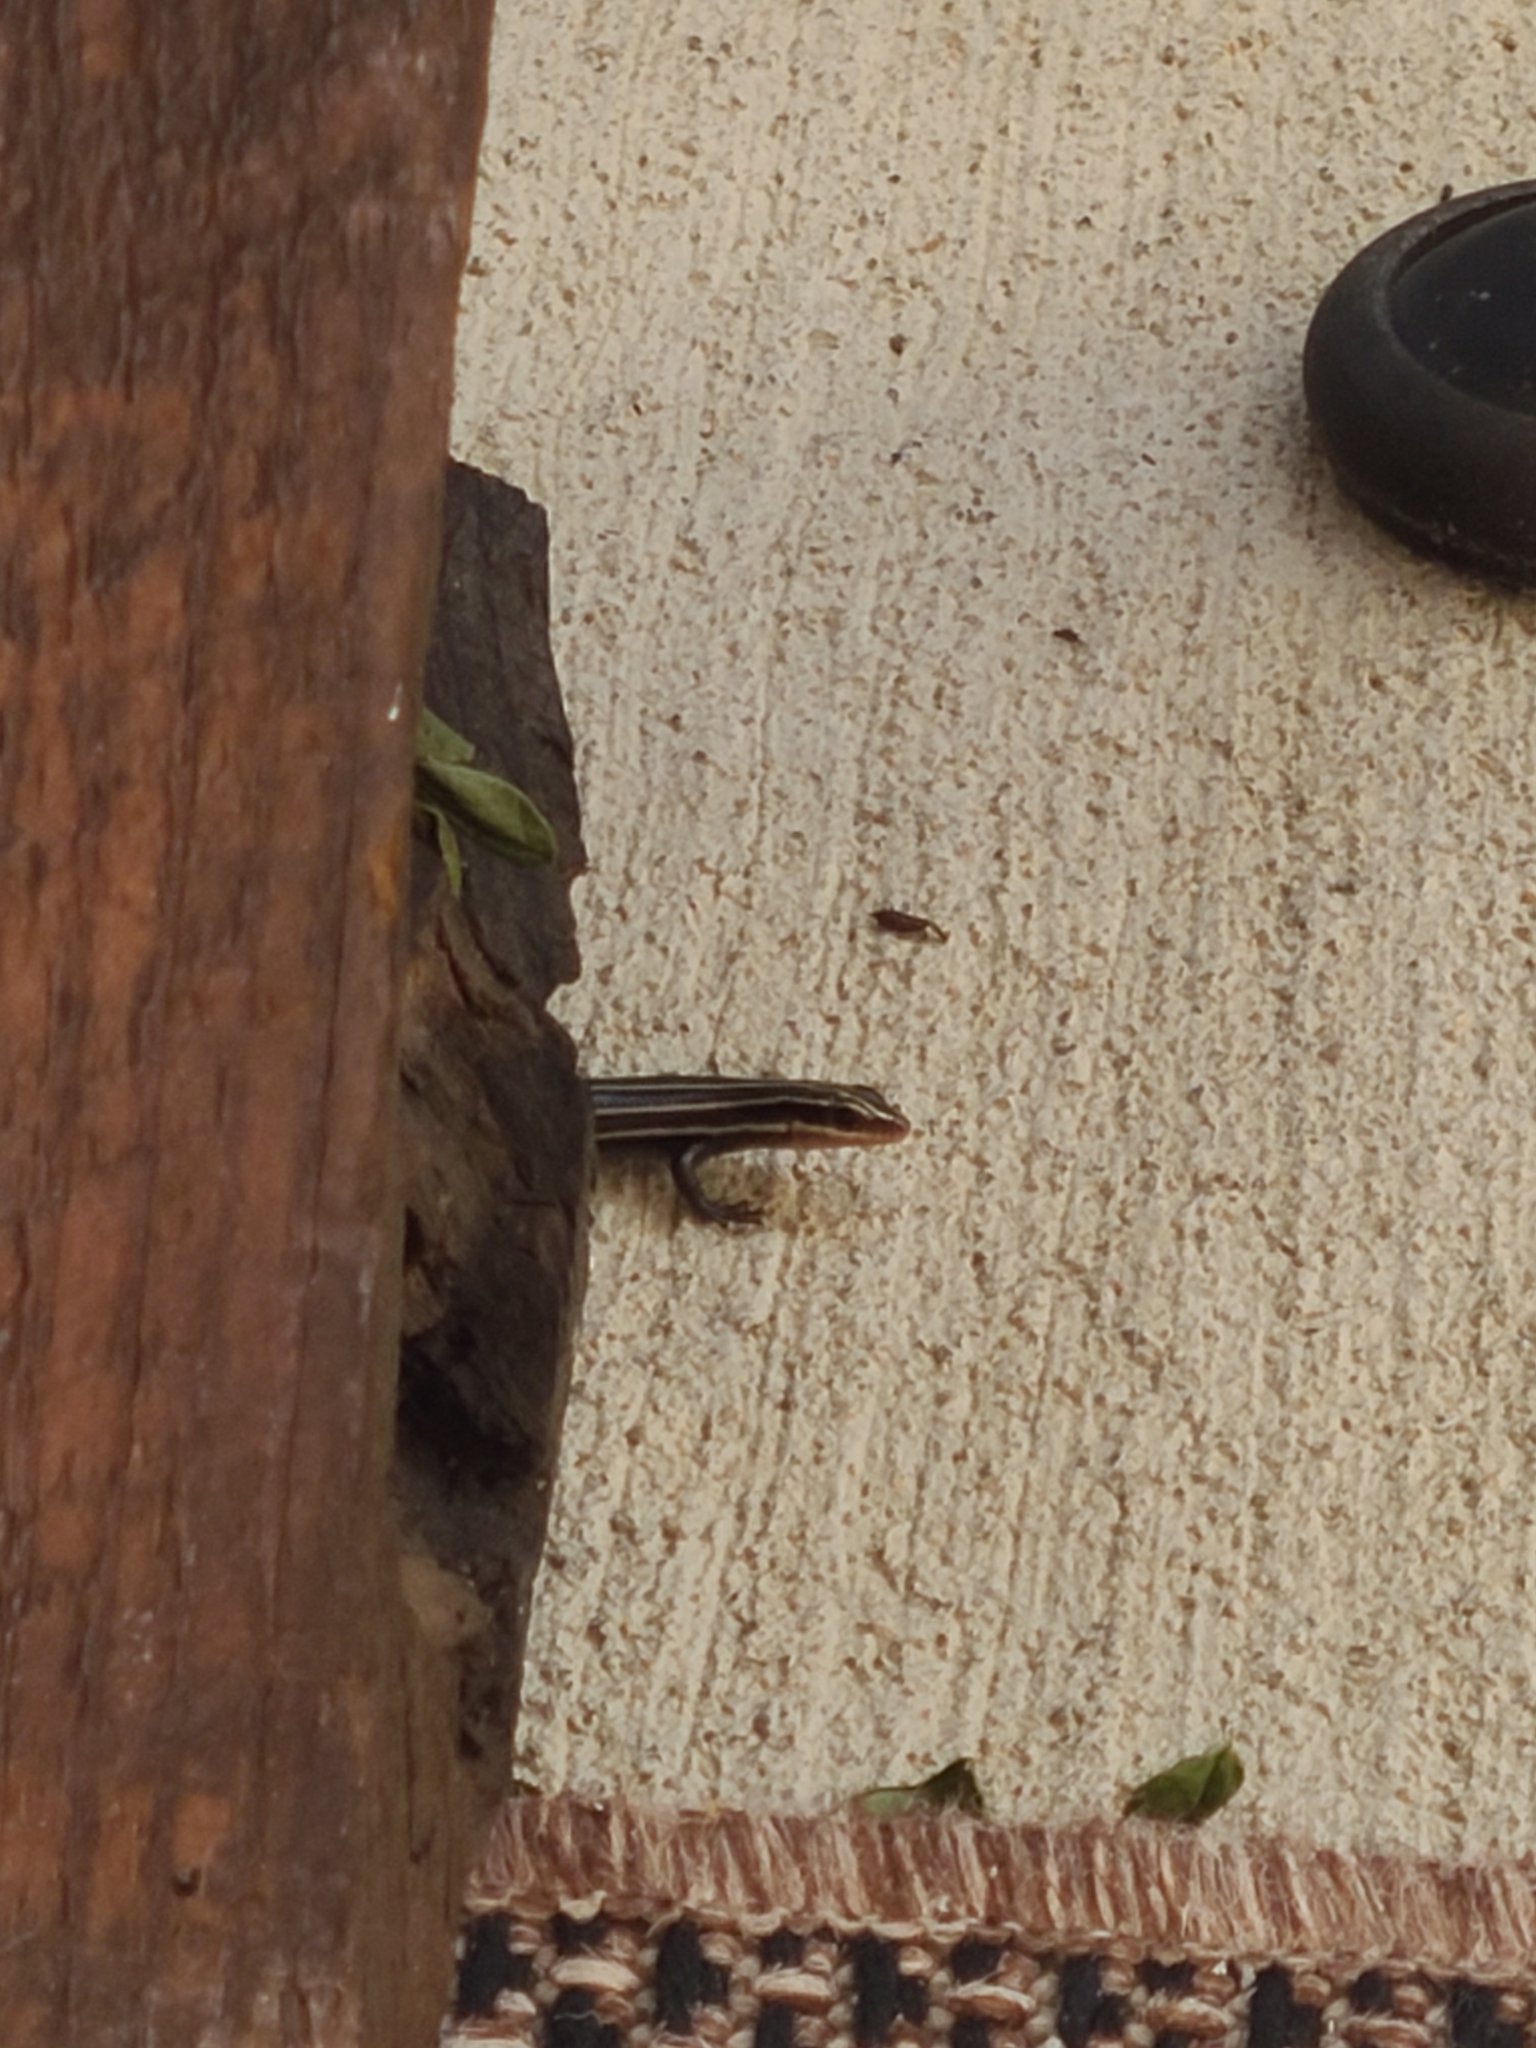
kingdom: Animalia
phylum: Chordata
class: Squamata
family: Scincidae
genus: Plestiodon
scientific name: Plestiodon fasciatus
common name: Five-lined skink
